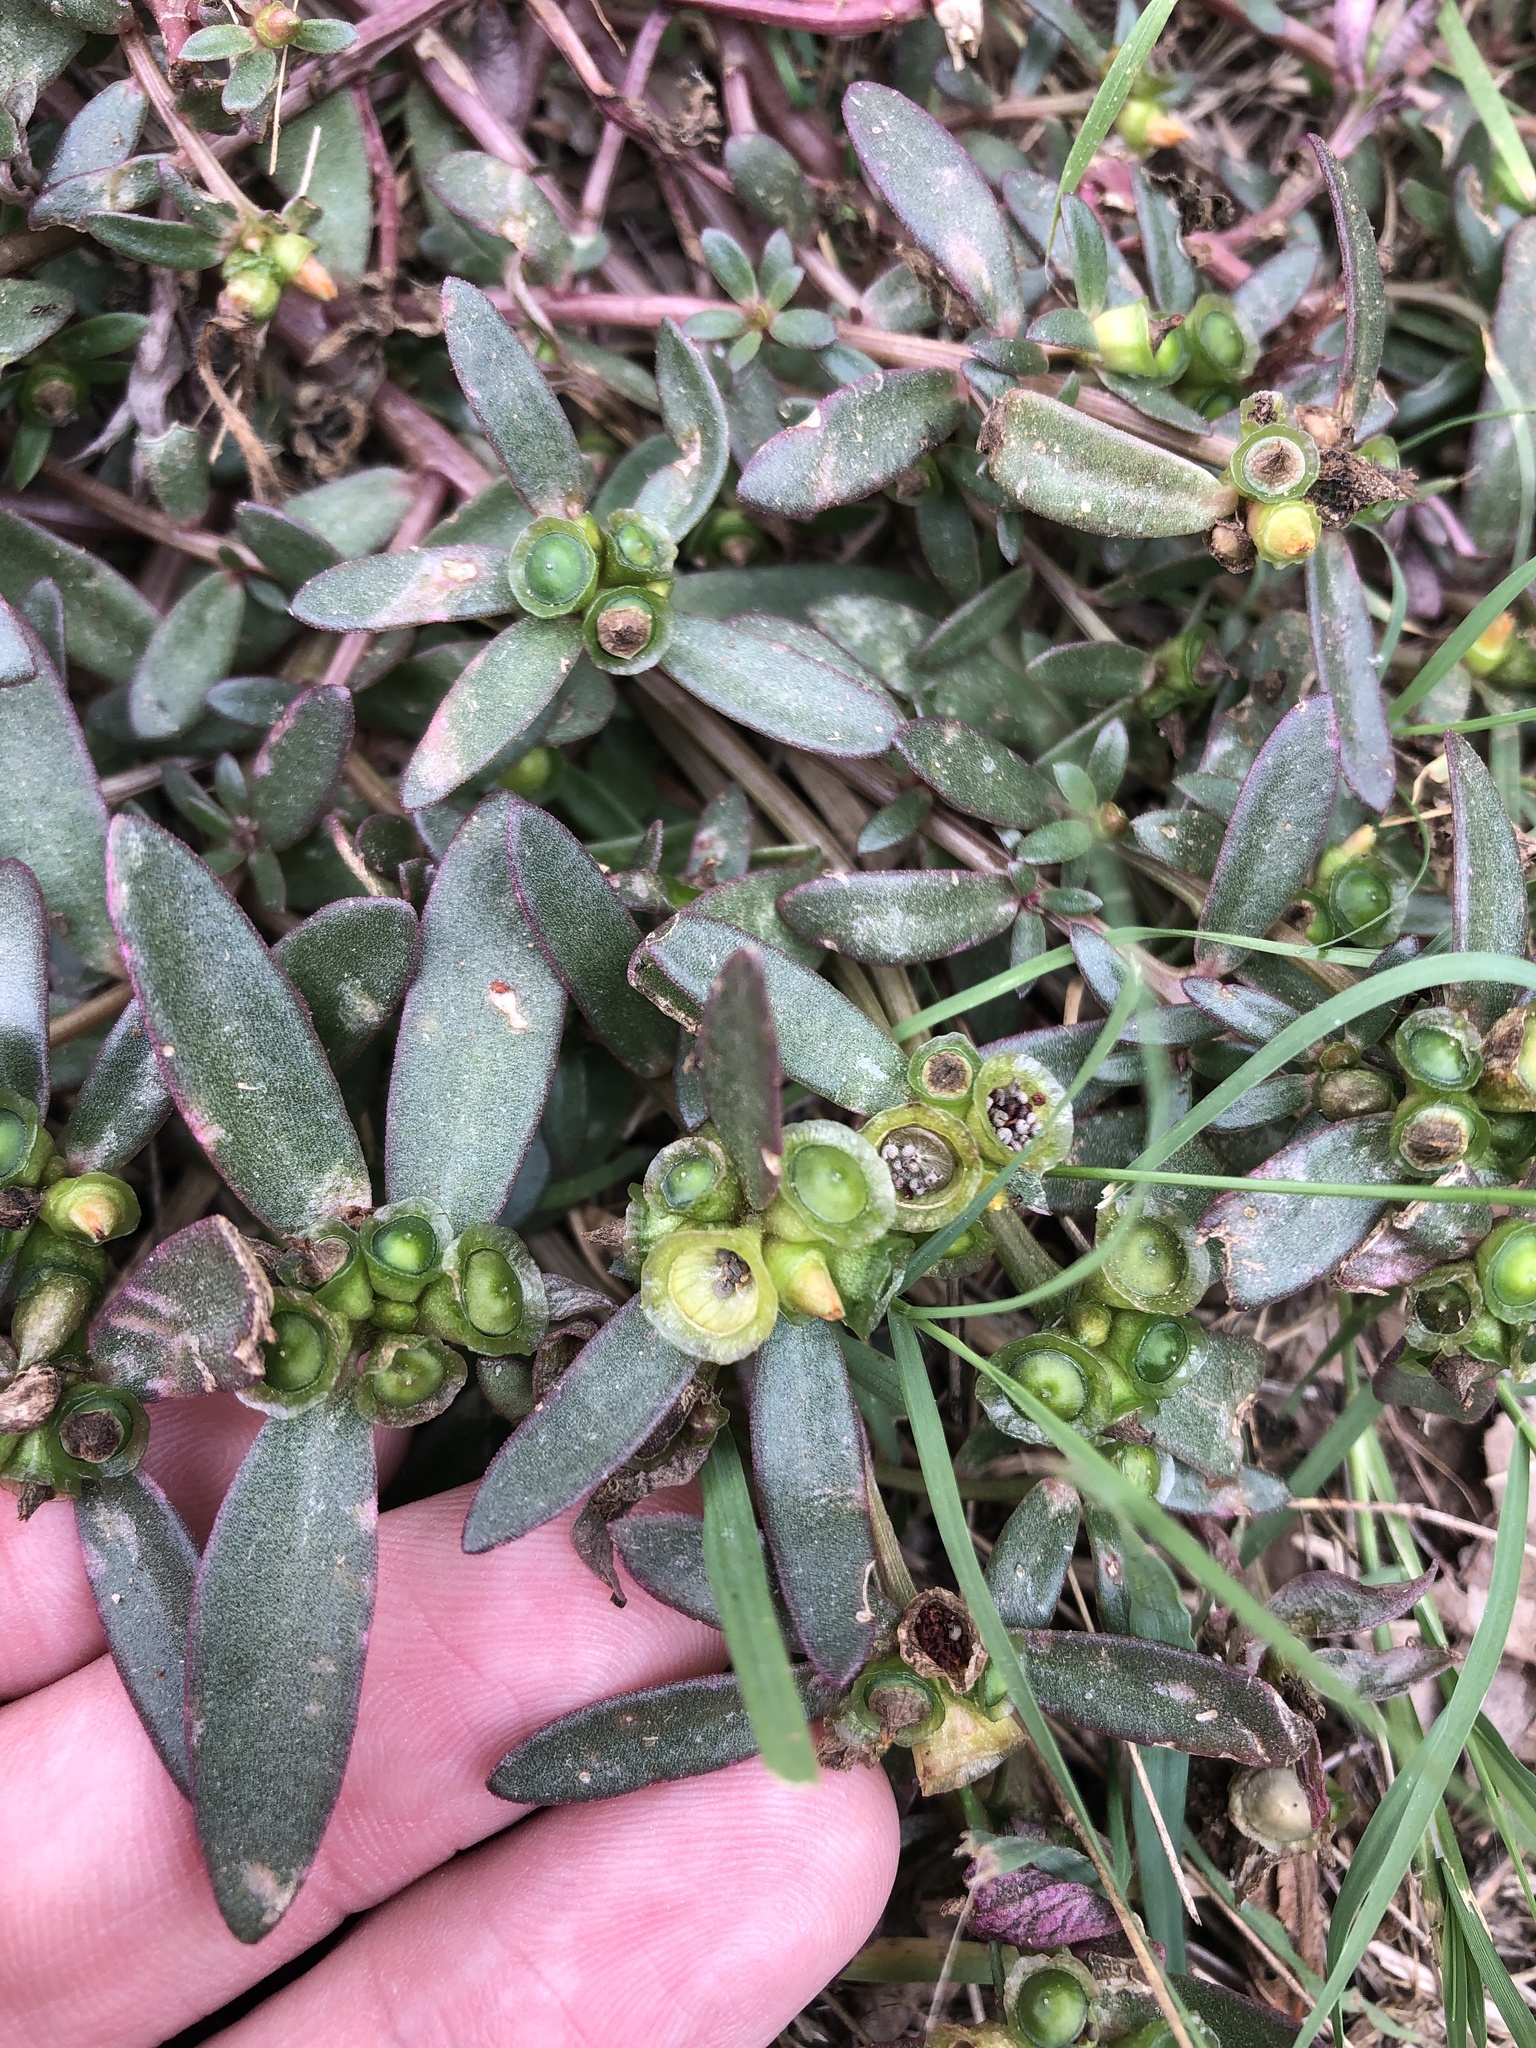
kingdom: Plantae
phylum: Tracheophyta
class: Magnoliopsida
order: Caryophyllales
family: Portulacaceae
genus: Portulaca
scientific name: Portulaca umbraticola
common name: Wingpod purslane
